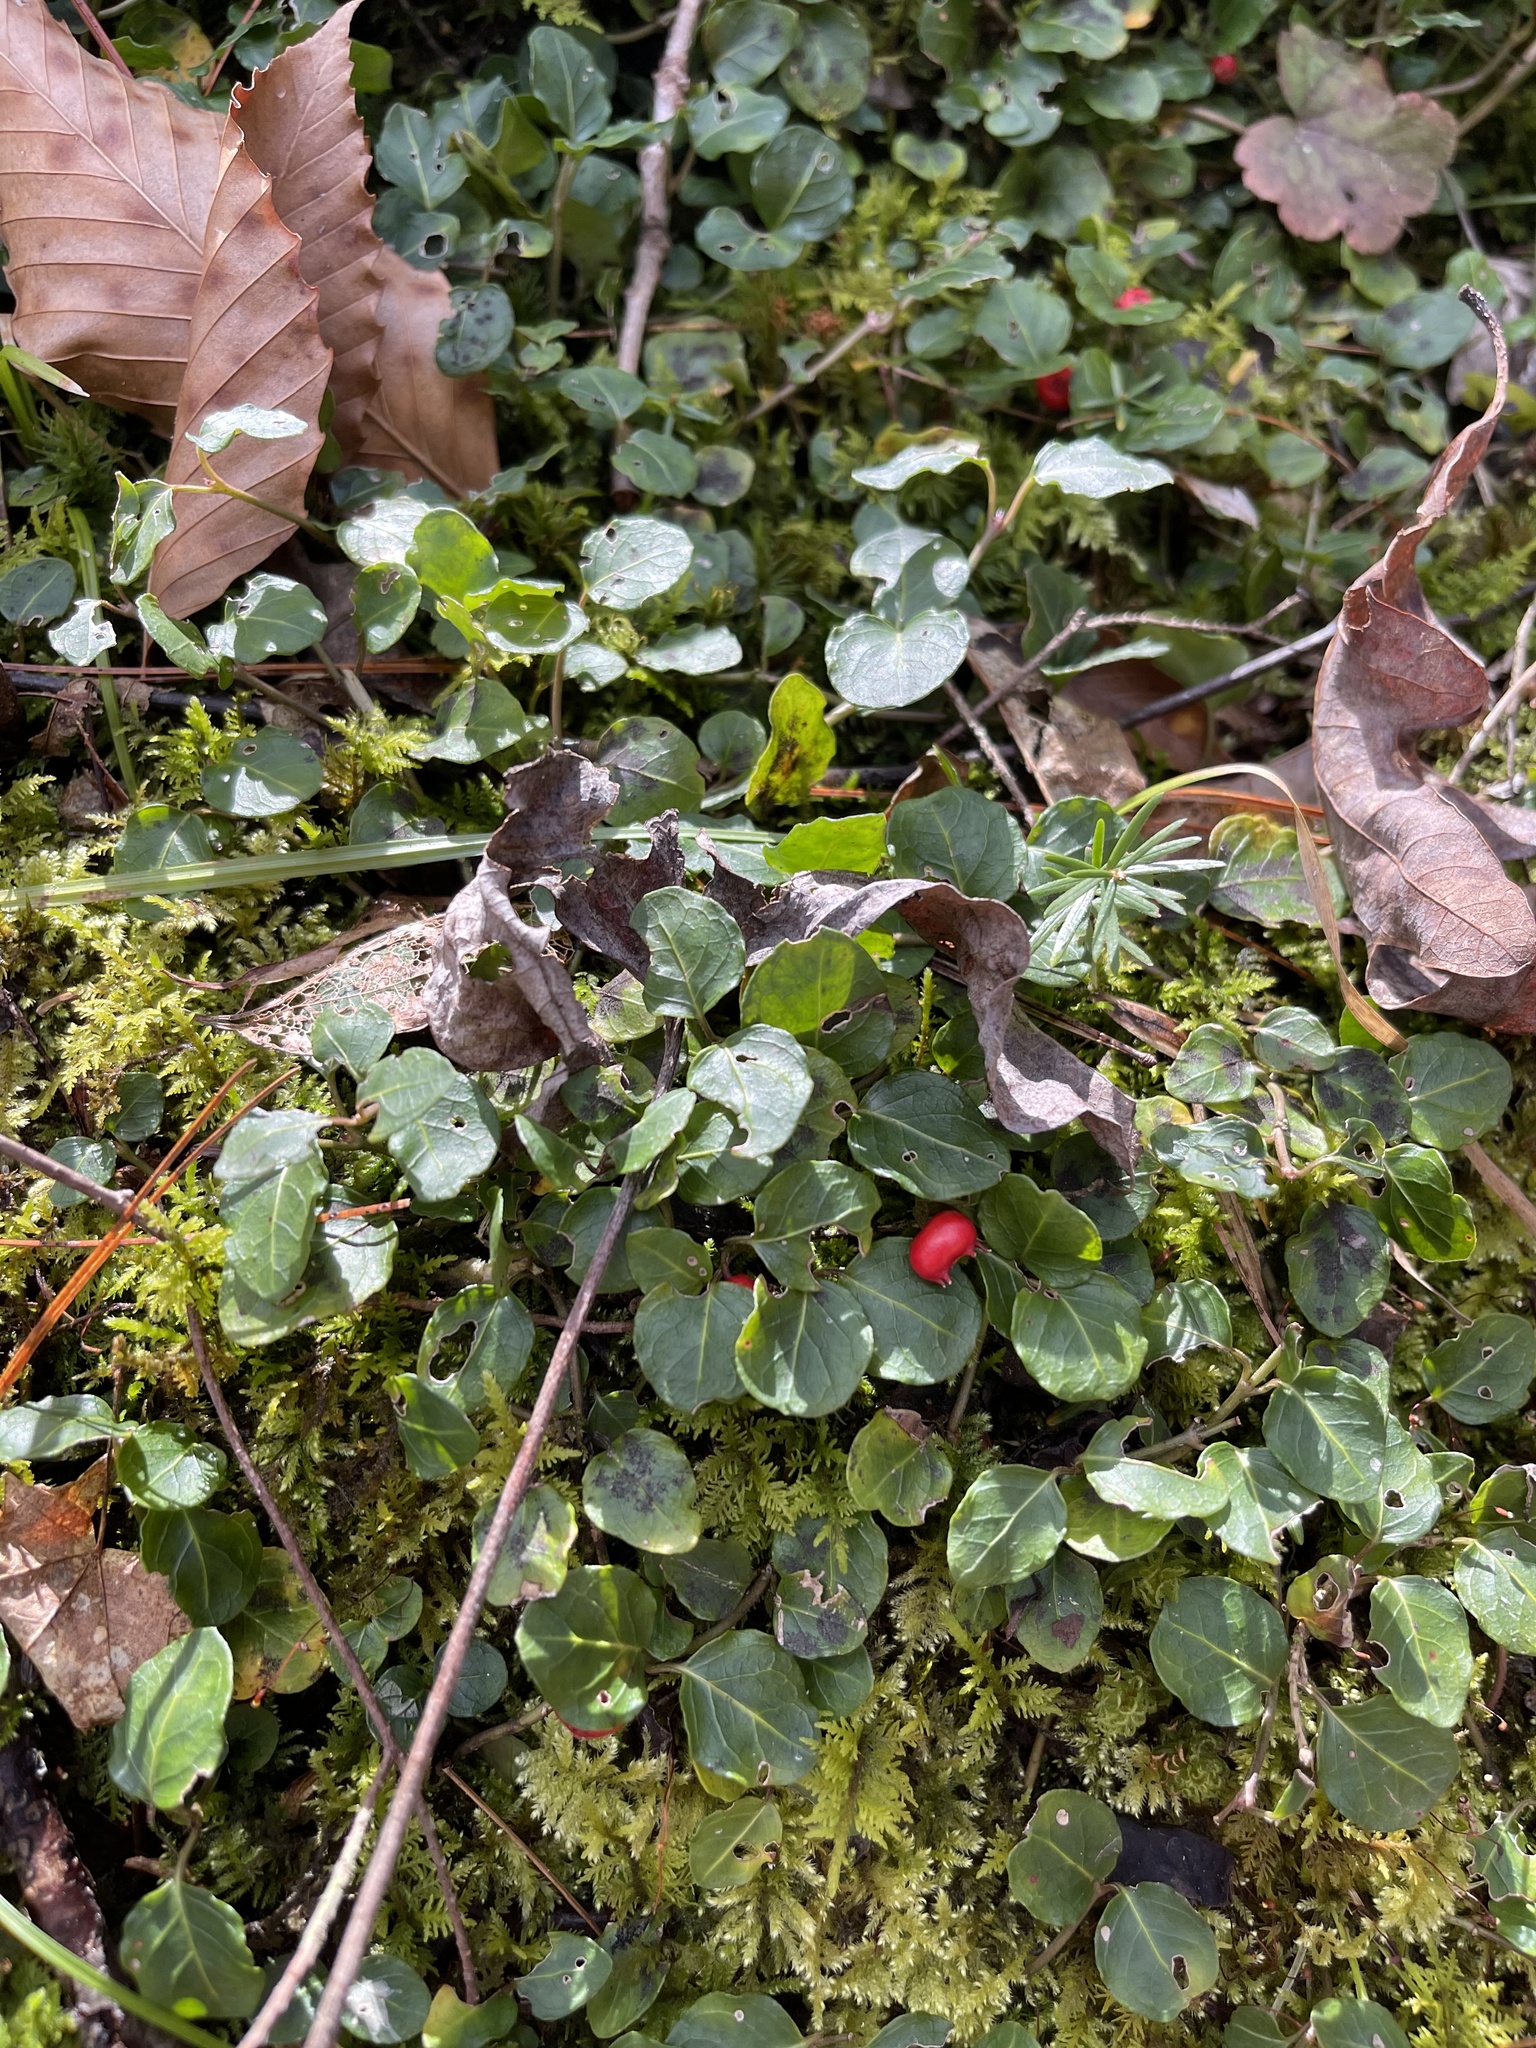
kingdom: Plantae
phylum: Tracheophyta
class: Magnoliopsida
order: Gentianales
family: Rubiaceae
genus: Mitchella
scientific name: Mitchella repens
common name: Partridge-berry
